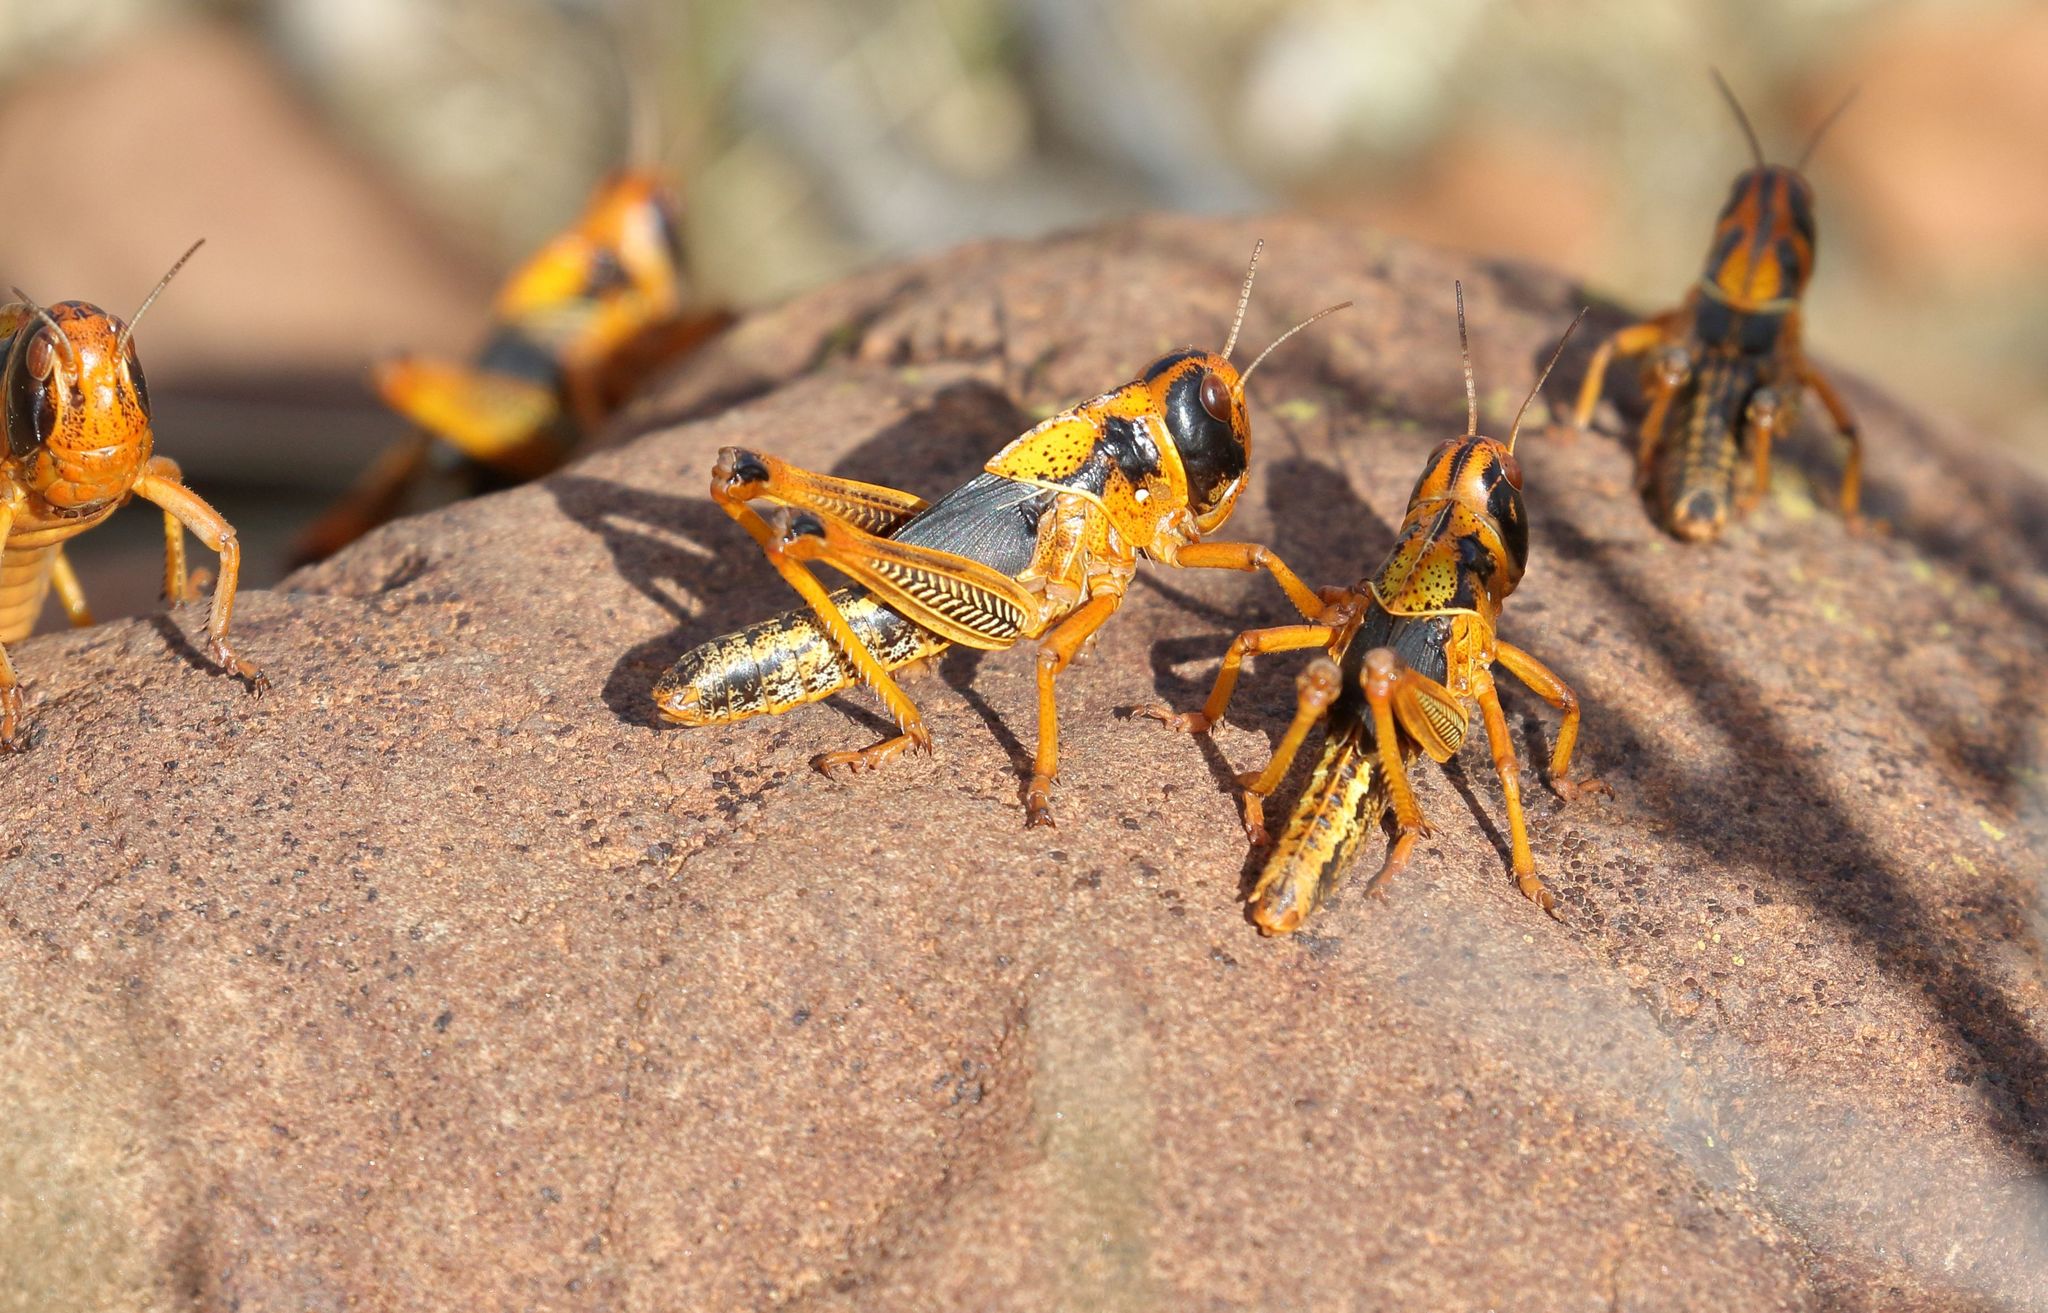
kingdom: Animalia
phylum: Arthropoda
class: Insecta
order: Orthoptera
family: Acrididae
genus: Locustana
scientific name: Locustana pardalina
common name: Brown locust
